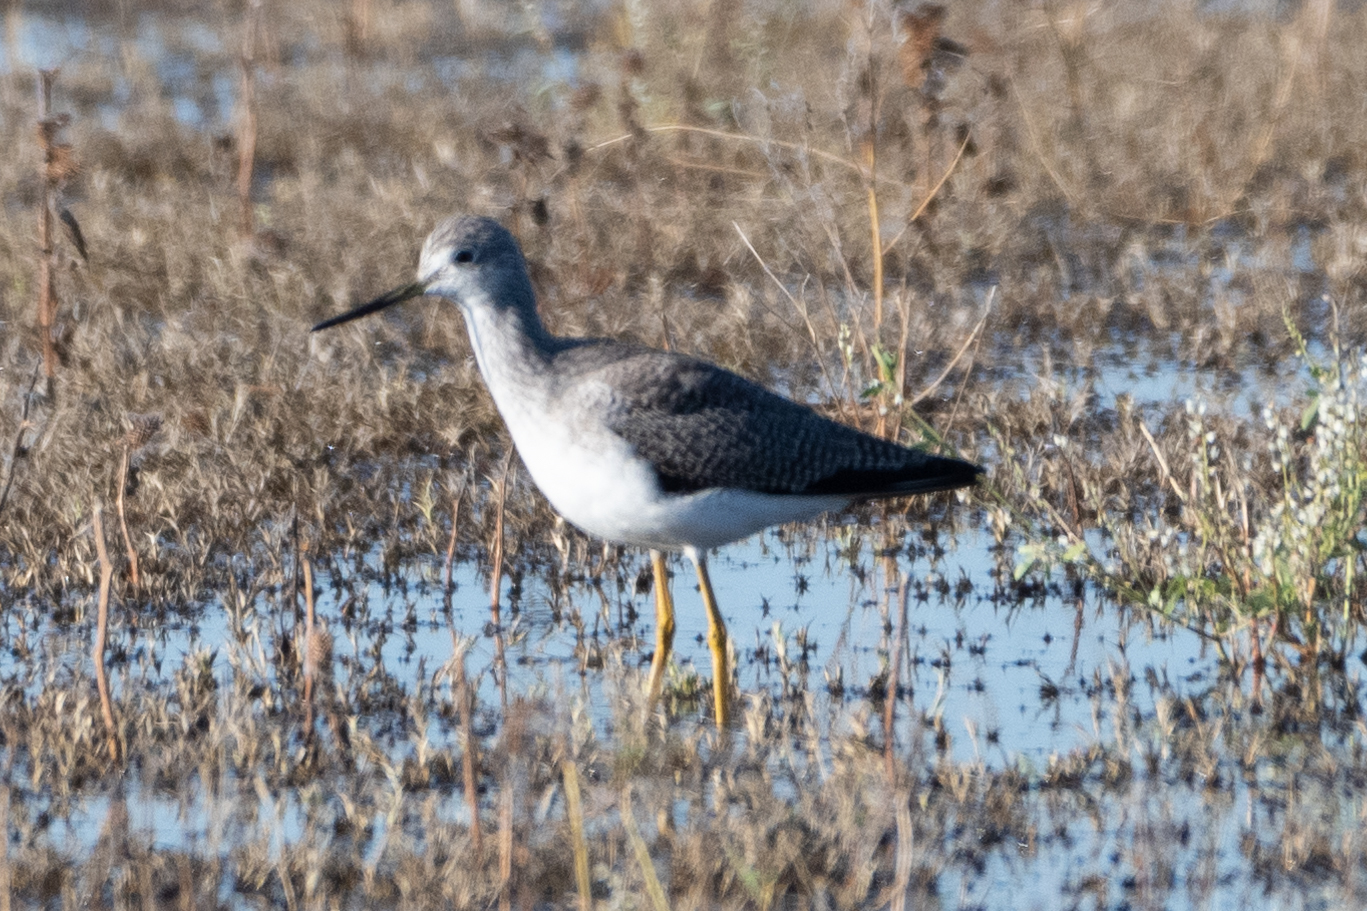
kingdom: Animalia
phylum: Chordata
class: Aves
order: Charadriiformes
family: Scolopacidae
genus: Tringa
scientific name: Tringa melanoleuca
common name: Greater yellowlegs
